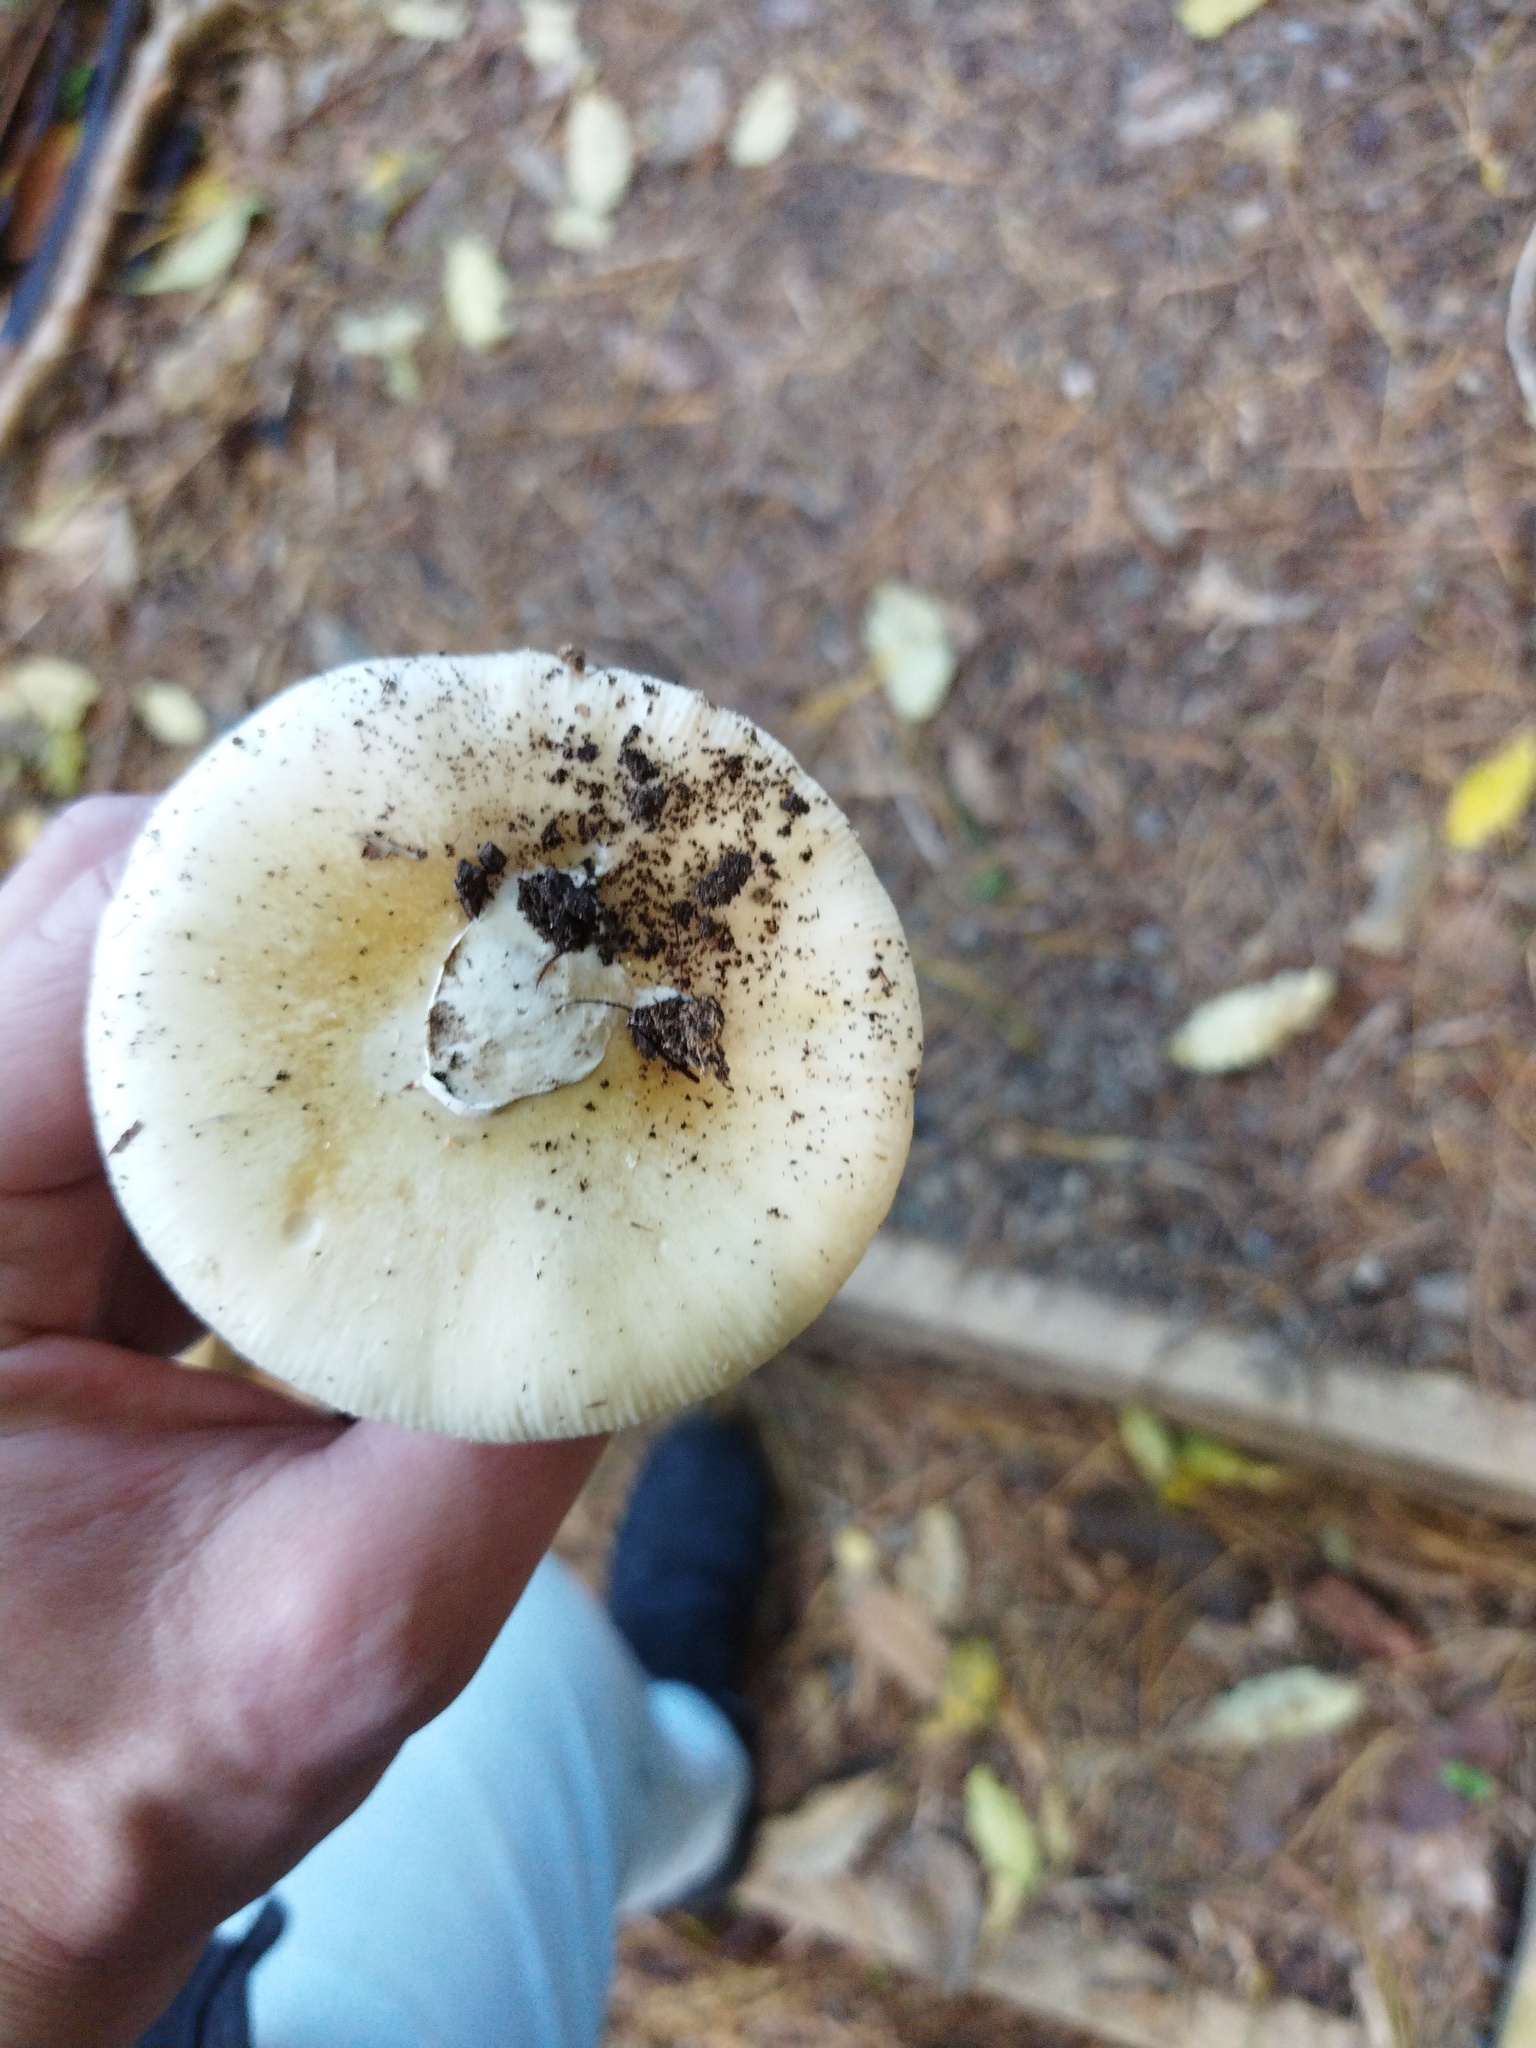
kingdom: Fungi
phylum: Basidiomycota
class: Agaricomycetes
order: Agaricales
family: Amanitaceae
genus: Amanita
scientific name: Amanita gemmata
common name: Jewelled amanita
